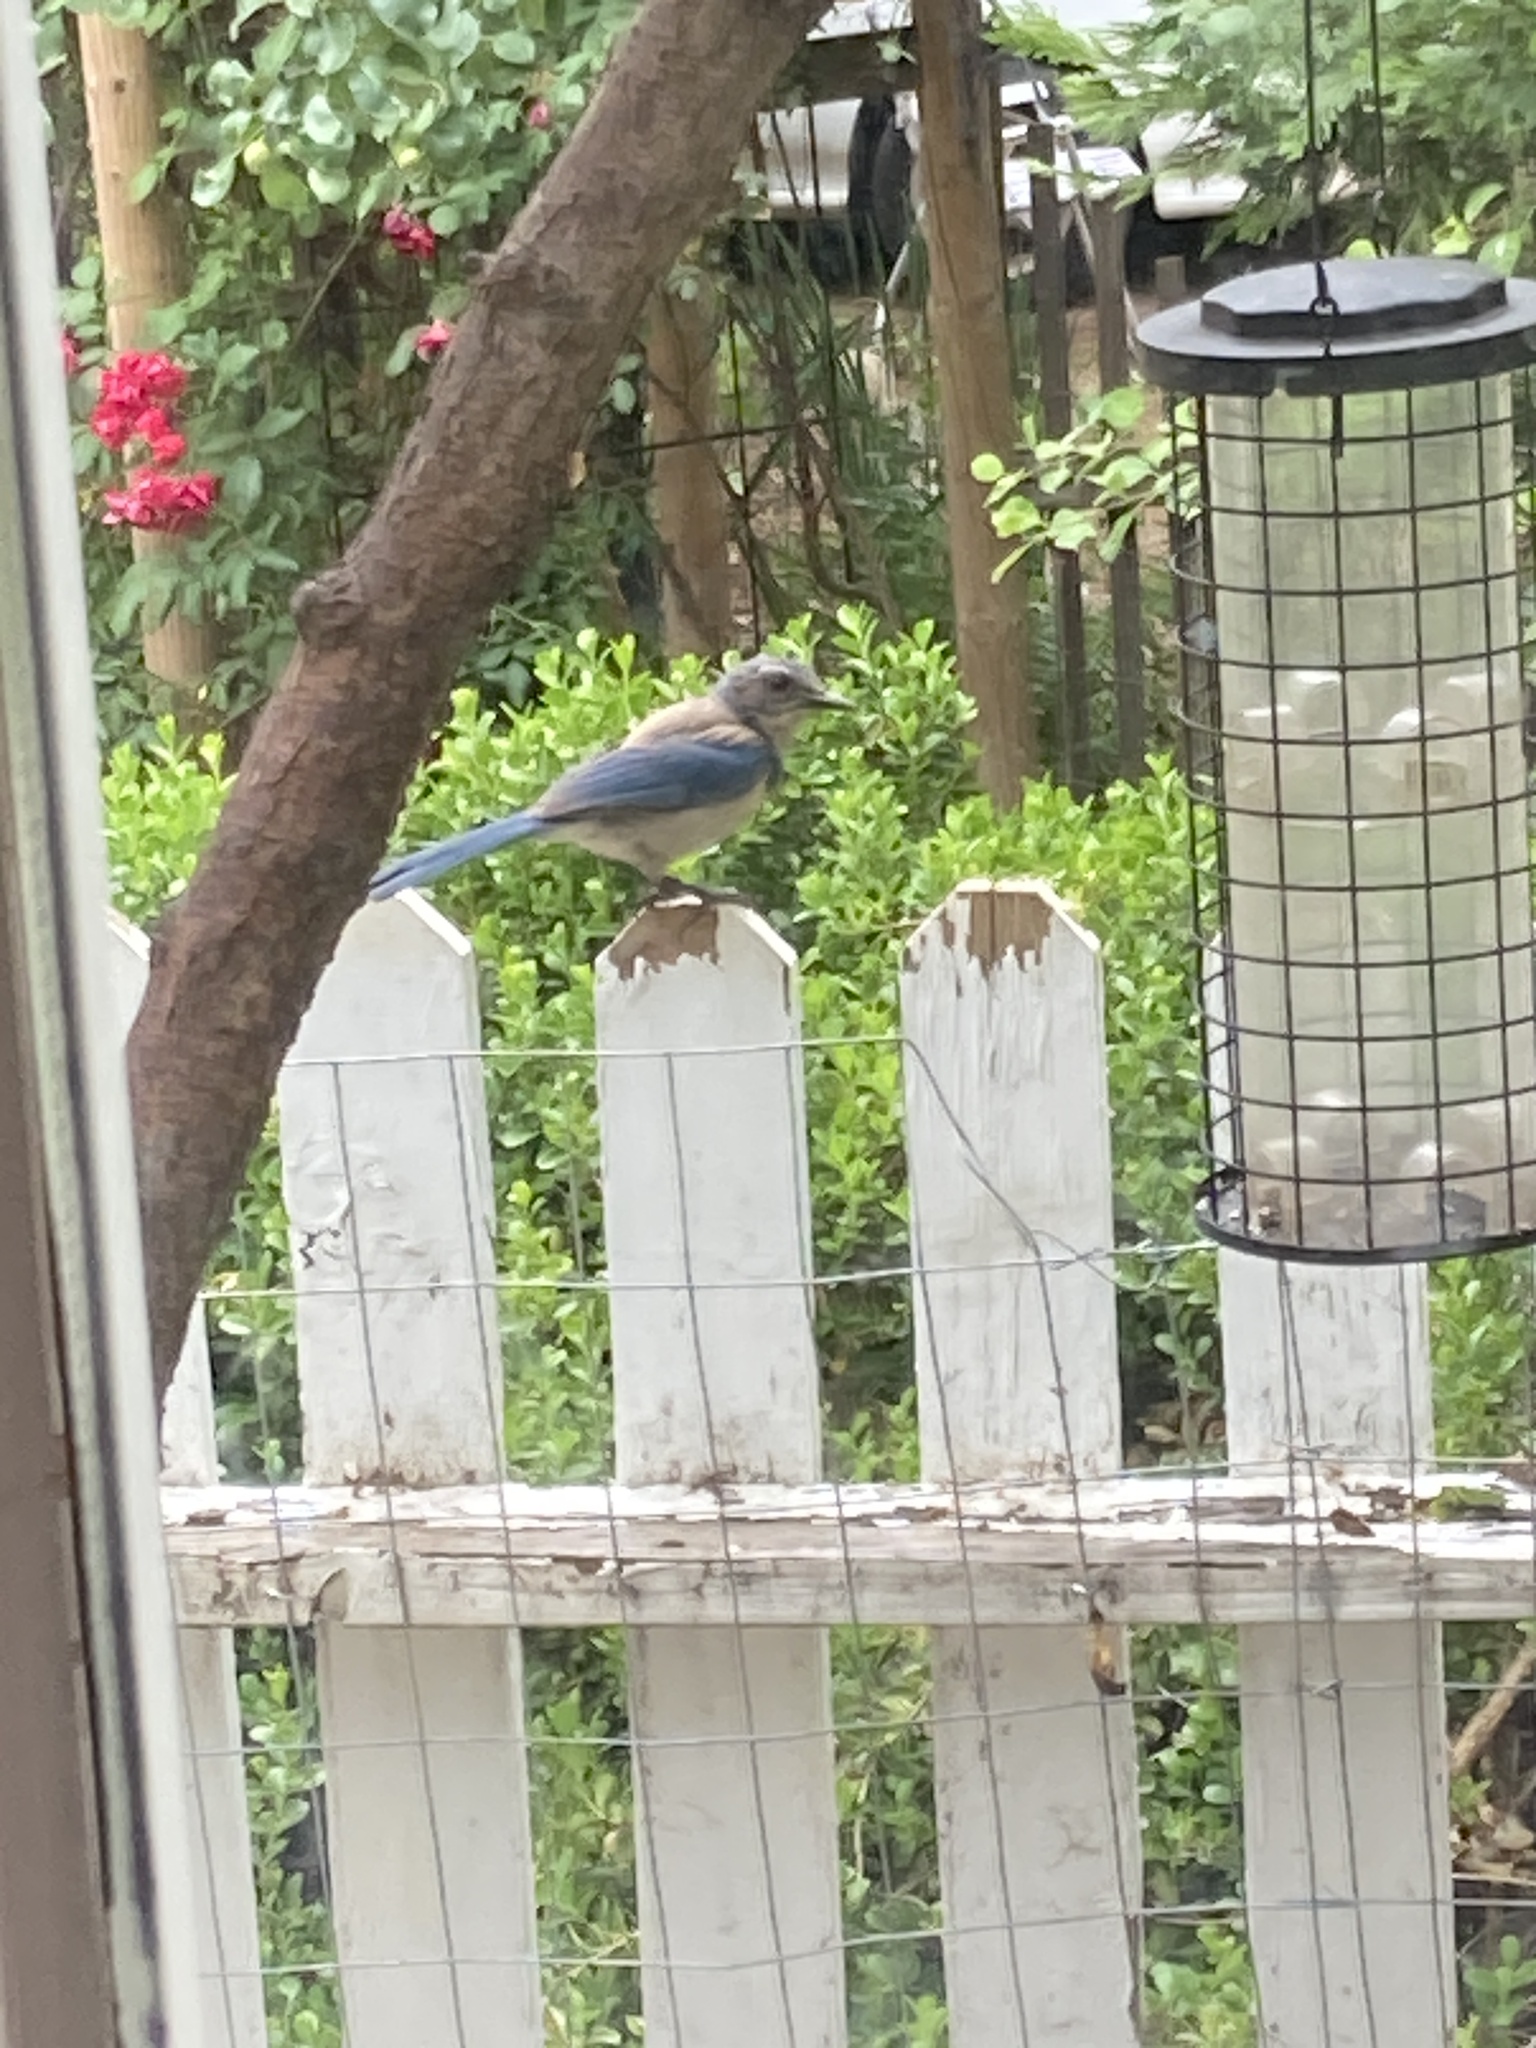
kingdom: Animalia
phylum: Chordata
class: Aves
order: Passeriformes
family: Corvidae
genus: Aphelocoma
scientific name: Aphelocoma californica
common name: California scrub-jay
